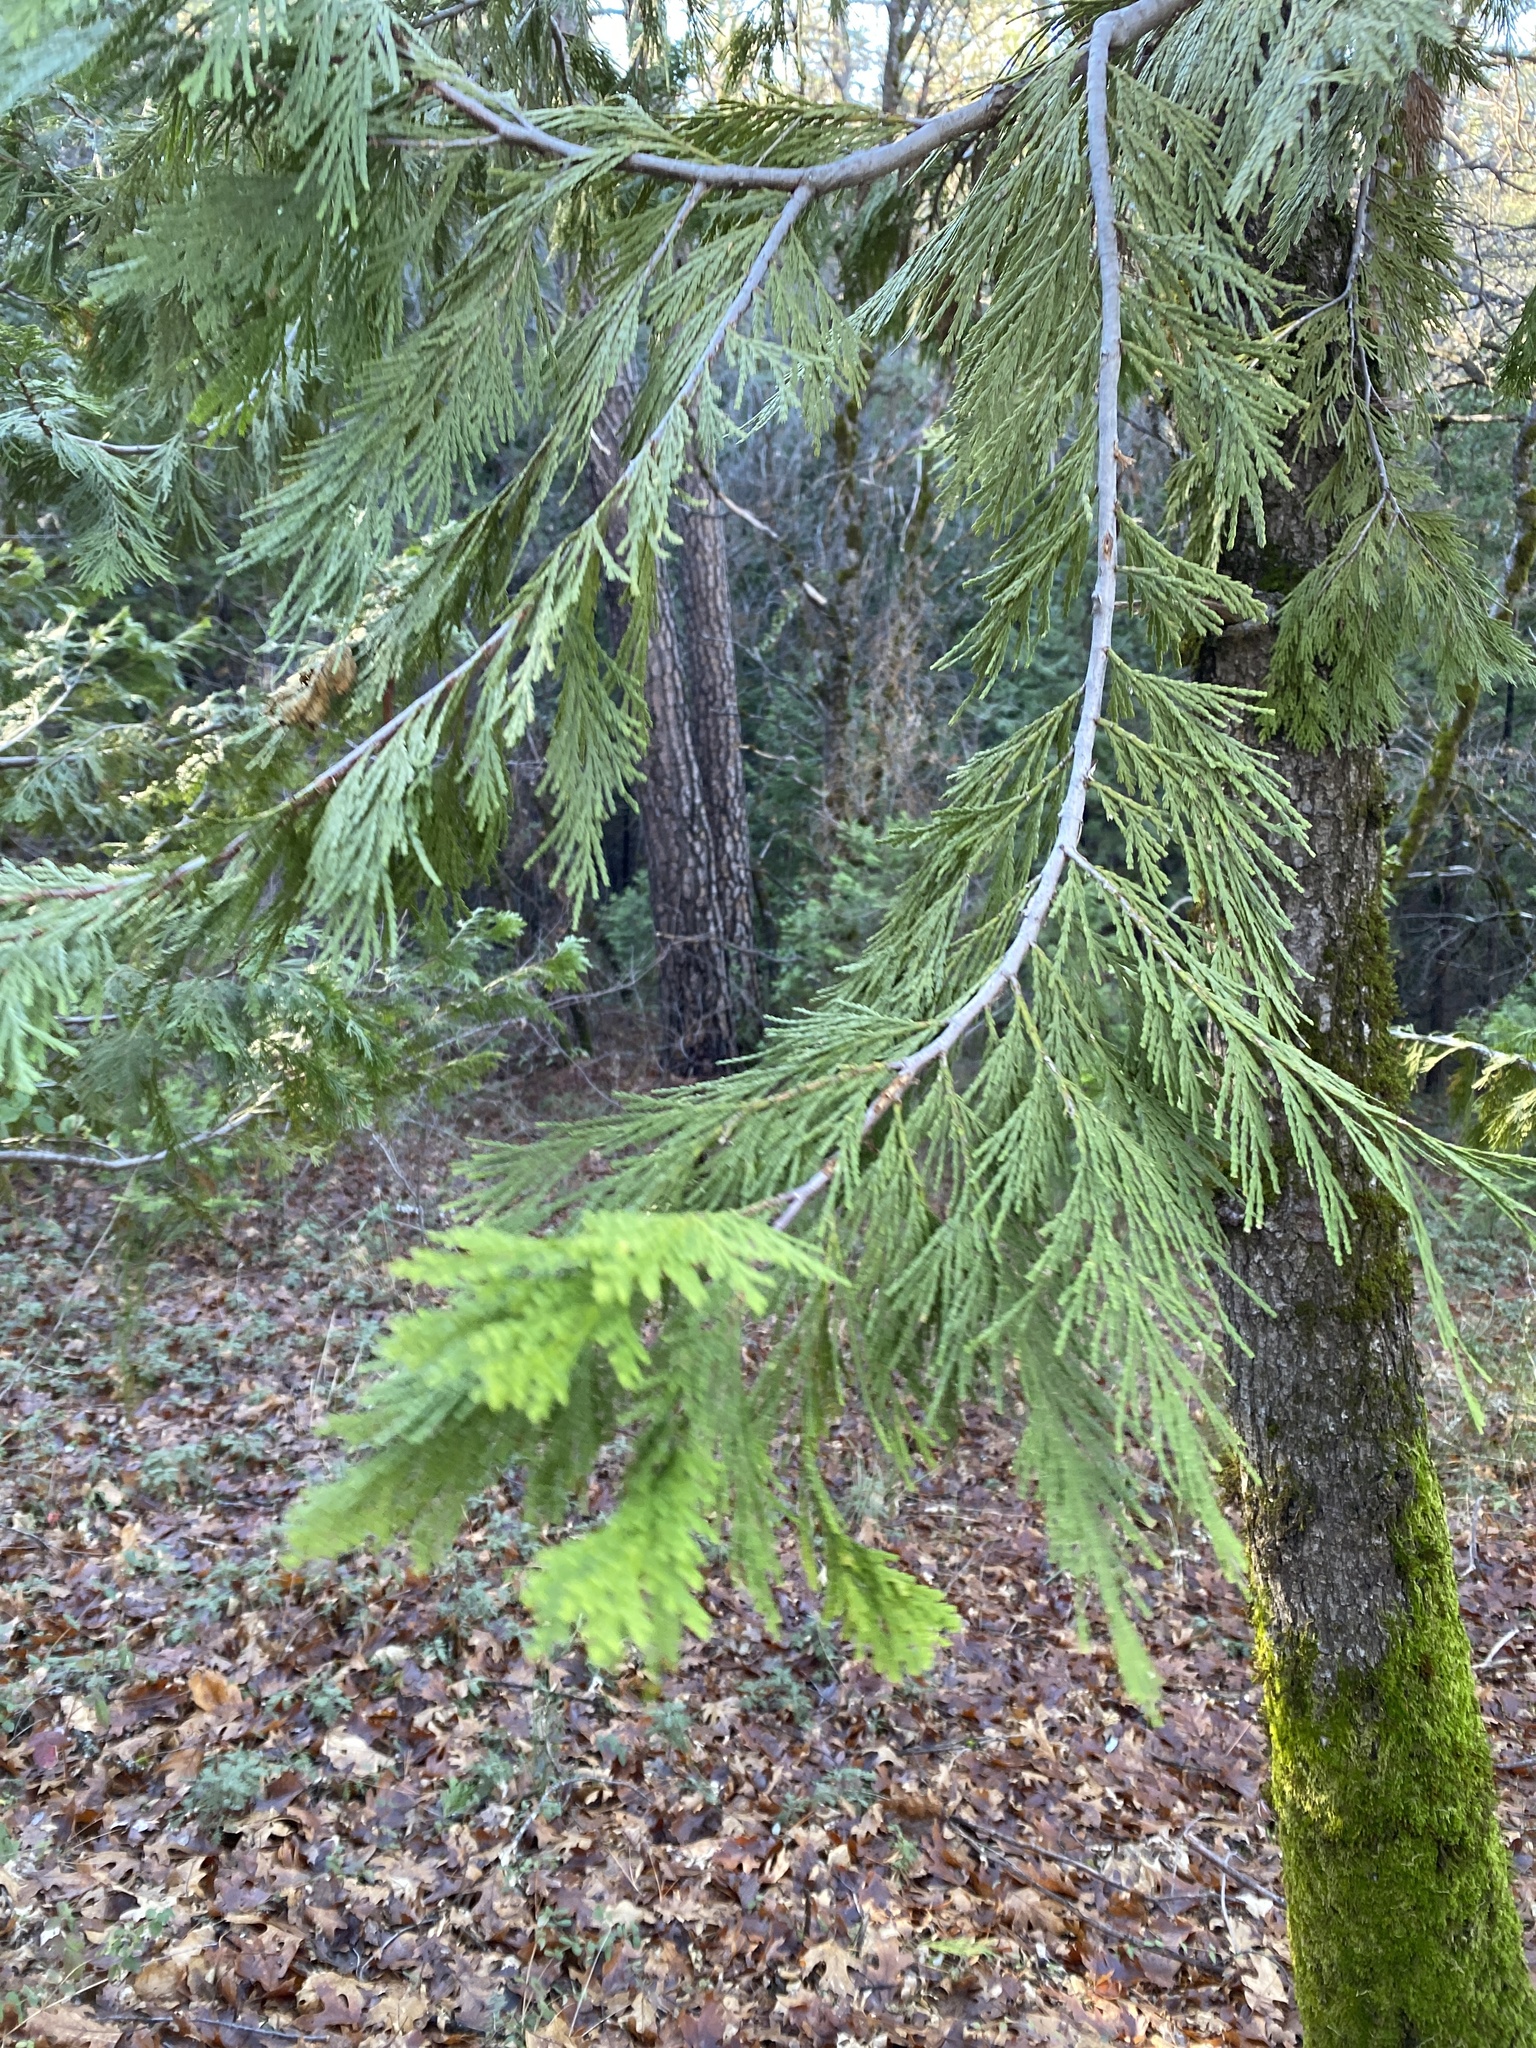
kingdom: Plantae
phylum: Tracheophyta
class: Pinopsida
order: Pinales
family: Cupressaceae
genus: Calocedrus
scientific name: Calocedrus decurrens
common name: Californian incense-cedar
